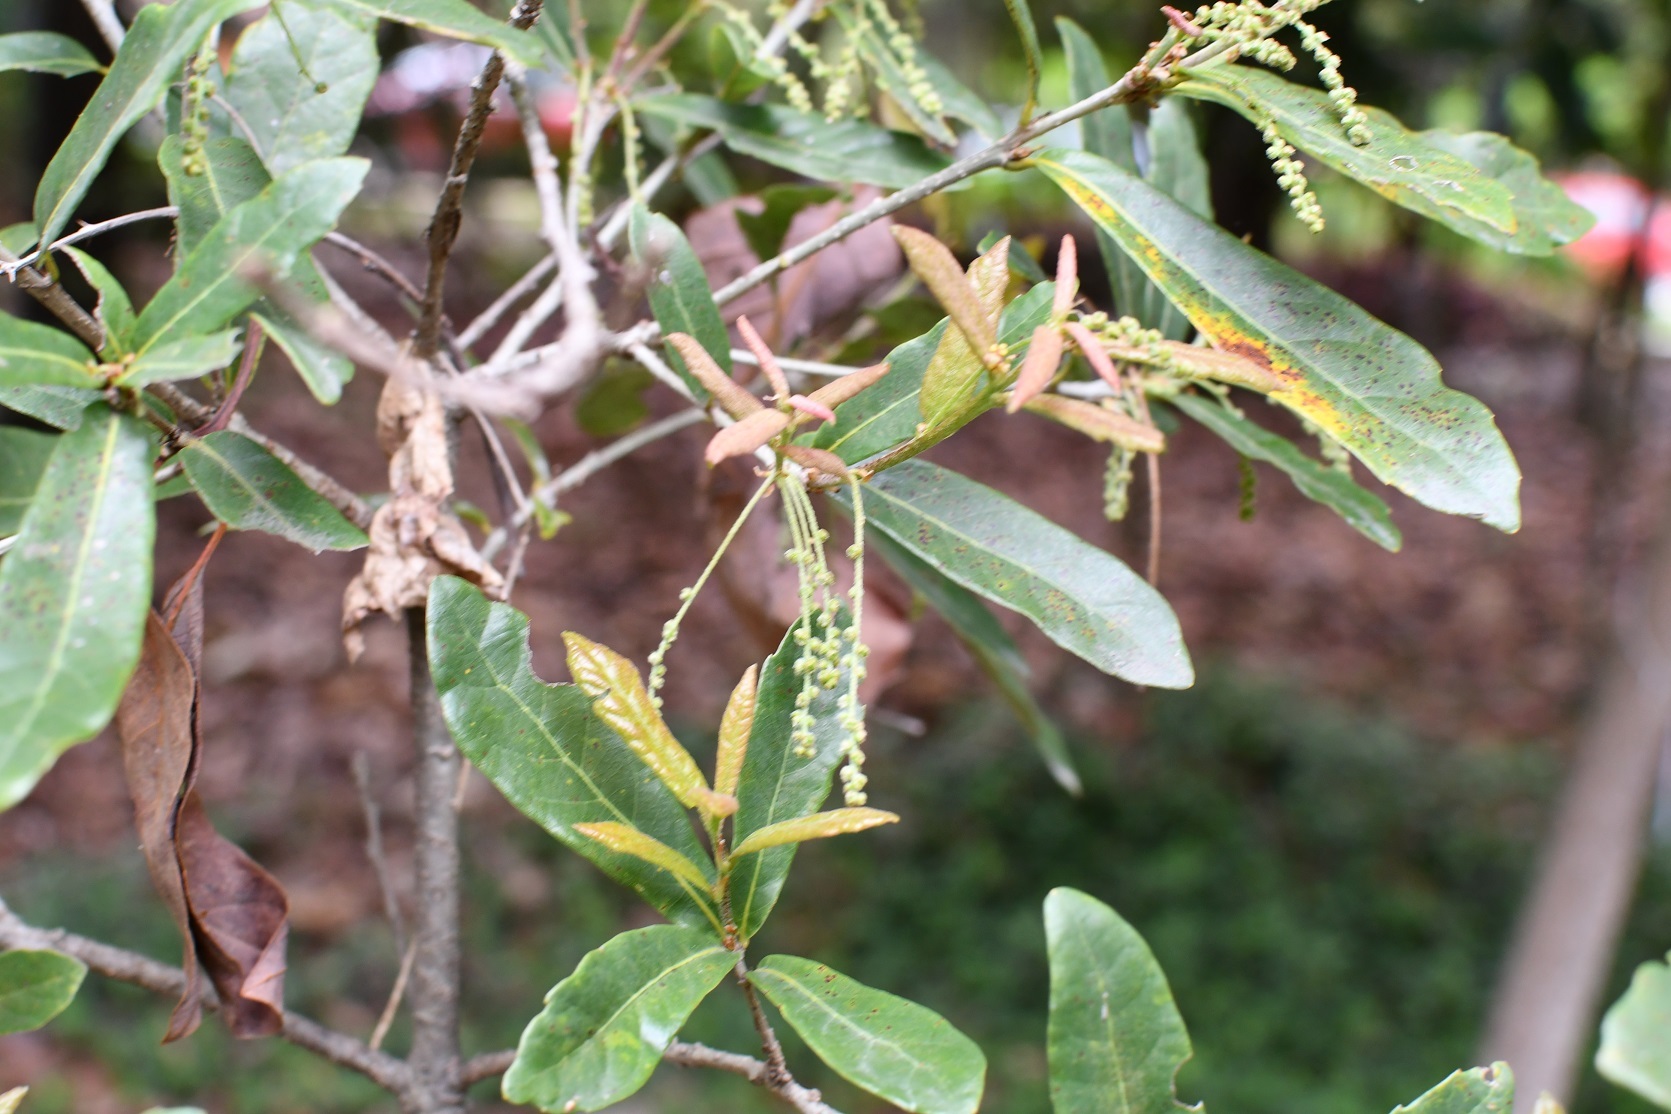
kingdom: Plantae
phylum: Tracheophyta
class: Magnoliopsida
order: Fagales
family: Fagaceae
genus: Quercus
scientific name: Quercus sebifera
